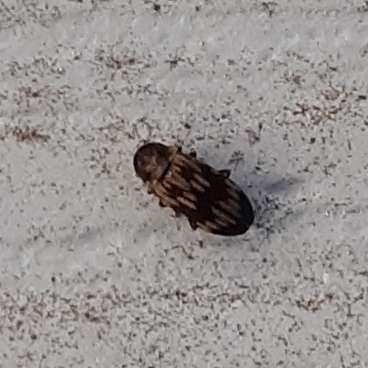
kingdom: Animalia
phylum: Arthropoda
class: Insecta
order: Coleoptera
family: Anobiidae
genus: Hadrobregmus
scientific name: Hadrobregmus notatus
